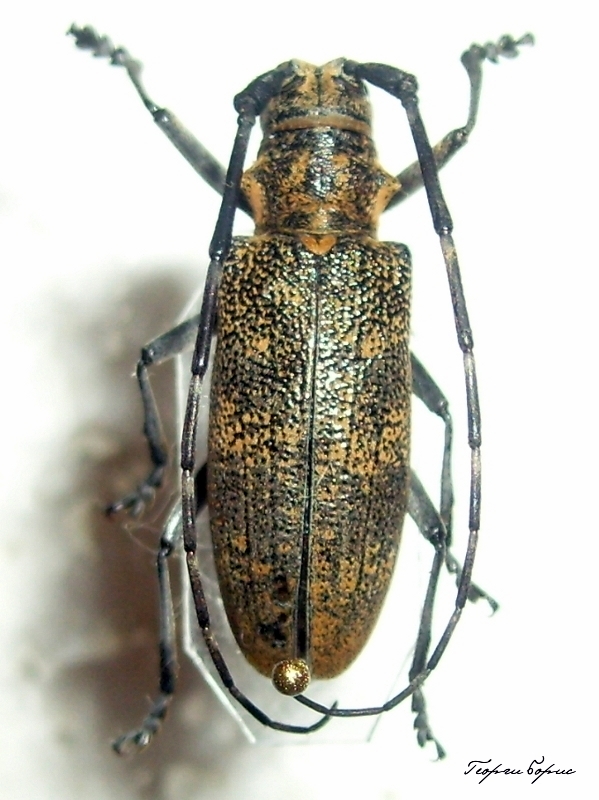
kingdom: Animalia
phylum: Arthropoda
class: Insecta
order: Coleoptera
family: Cerambycidae
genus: Monochamus
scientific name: Monochamus galloprovincialis
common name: Pine sawyer
